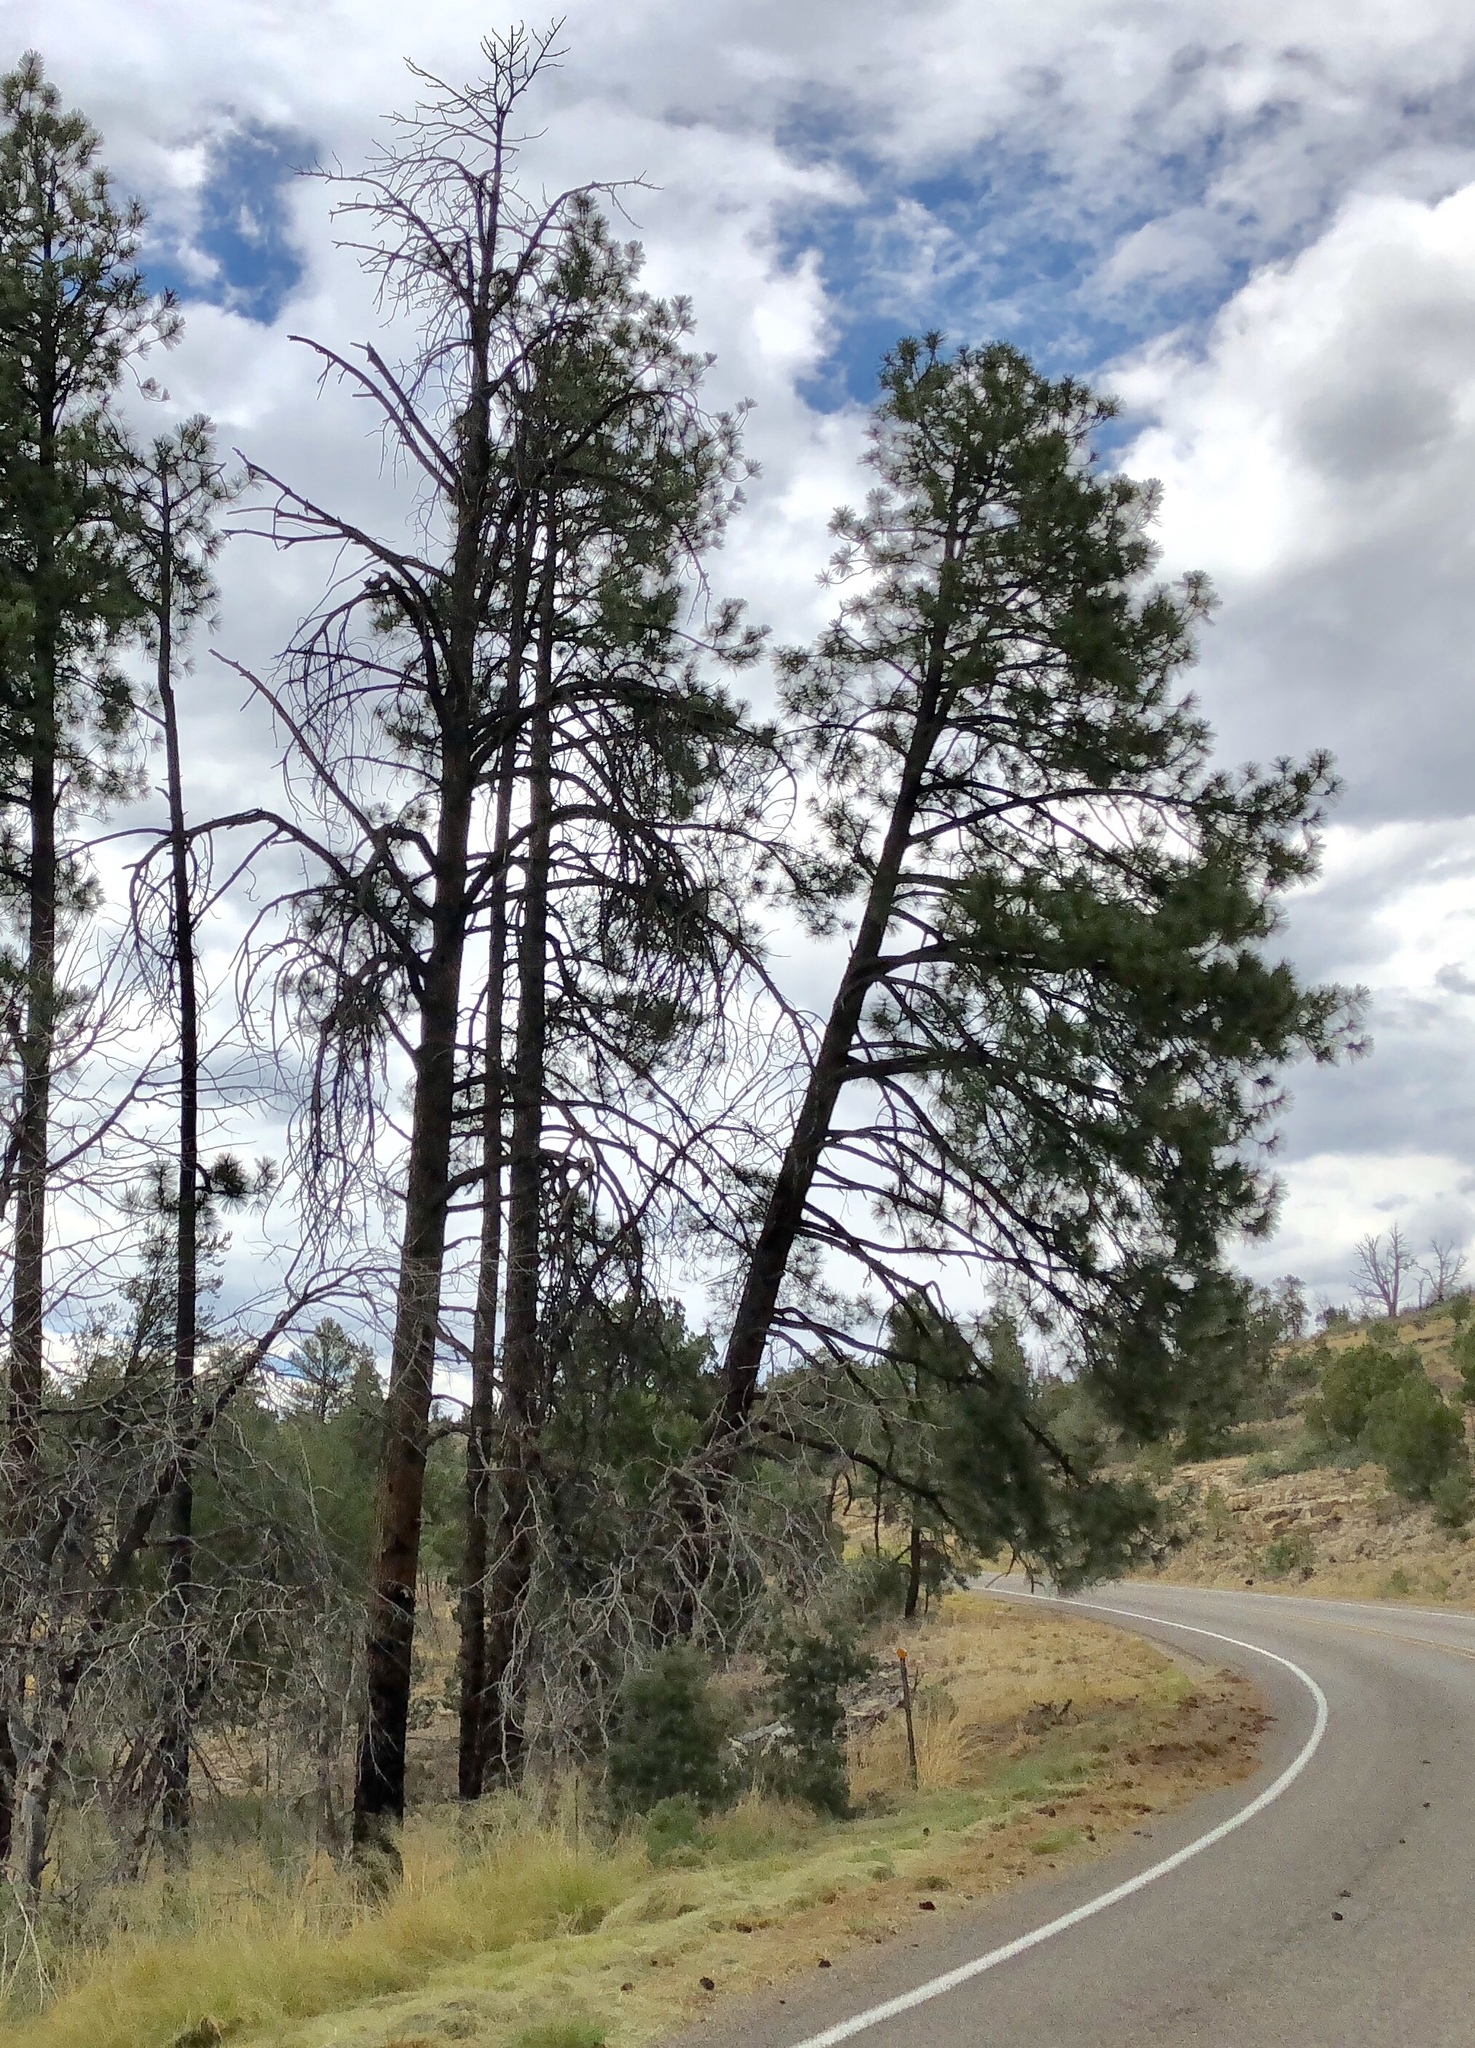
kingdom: Plantae
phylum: Tracheophyta
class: Pinopsida
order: Pinales
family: Pinaceae
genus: Pinus
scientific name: Pinus ponderosa
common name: Western yellow-pine
